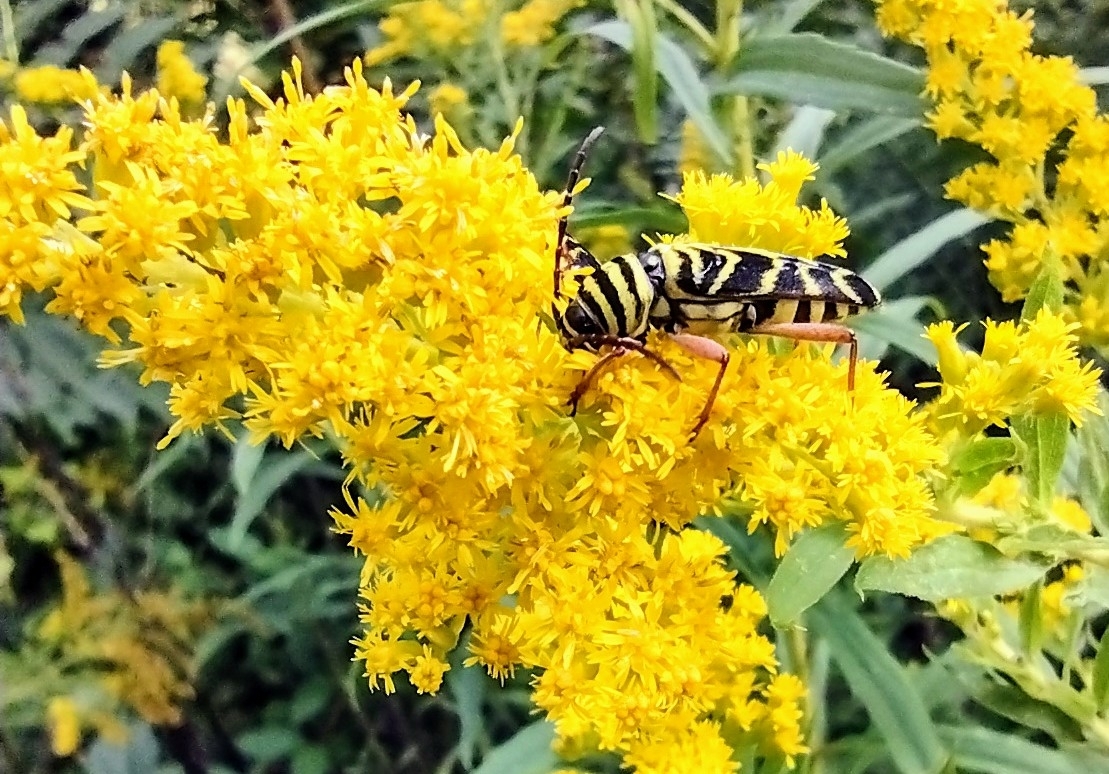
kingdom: Animalia
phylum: Arthropoda
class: Insecta
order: Coleoptera
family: Cerambycidae
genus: Megacyllene
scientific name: Megacyllene robiniae
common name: Locust borer
